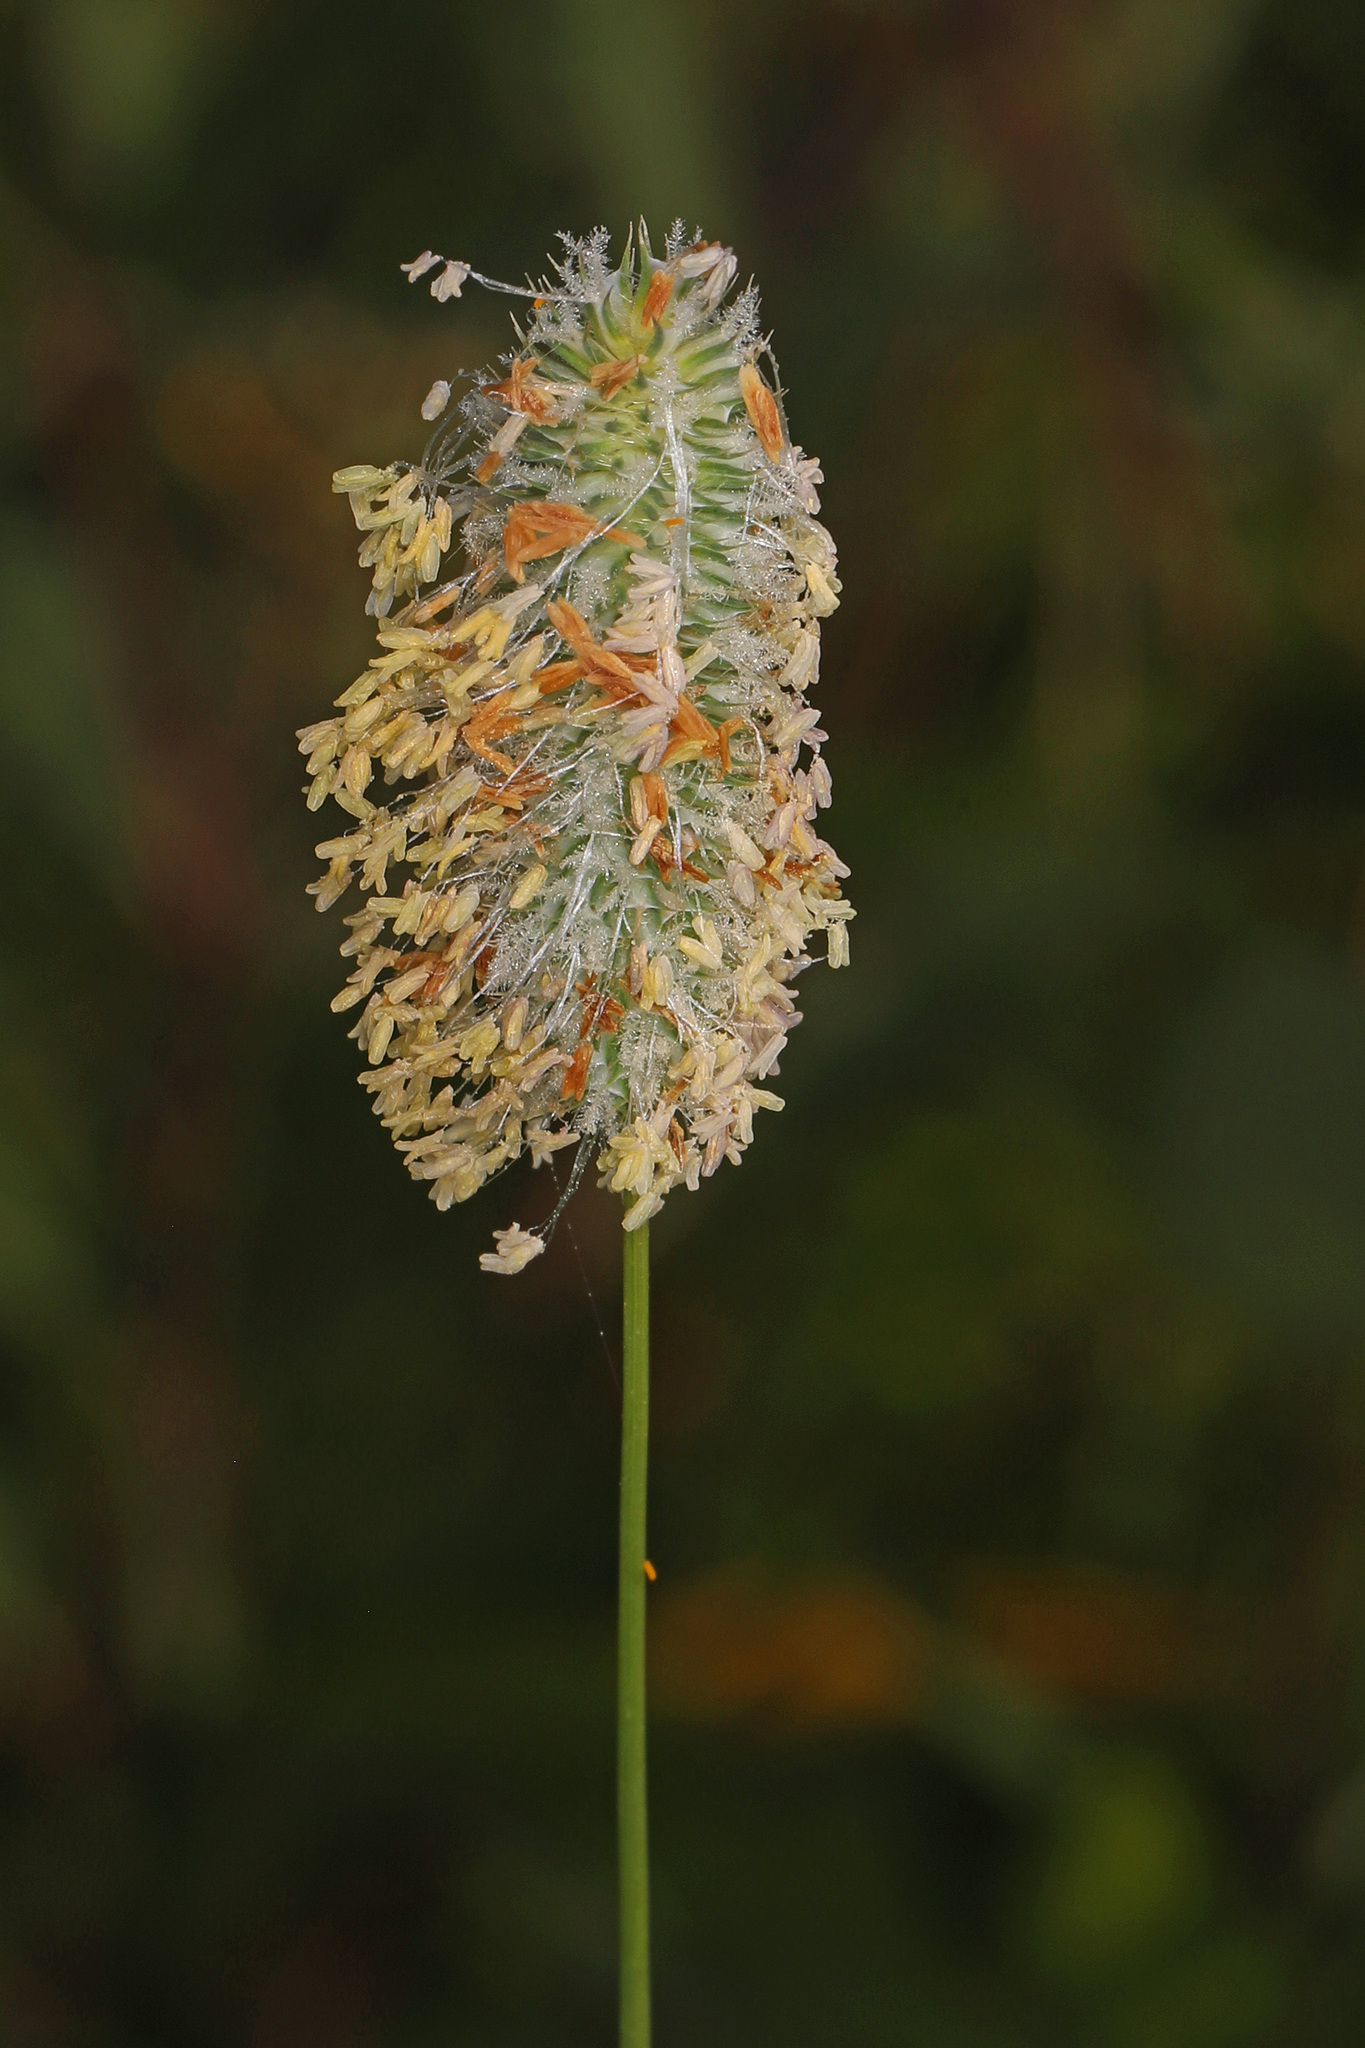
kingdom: Plantae
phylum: Tracheophyta
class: Liliopsida
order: Poales
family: Poaceae
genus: Phleum
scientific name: Phleum pratense
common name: Timothy grass
